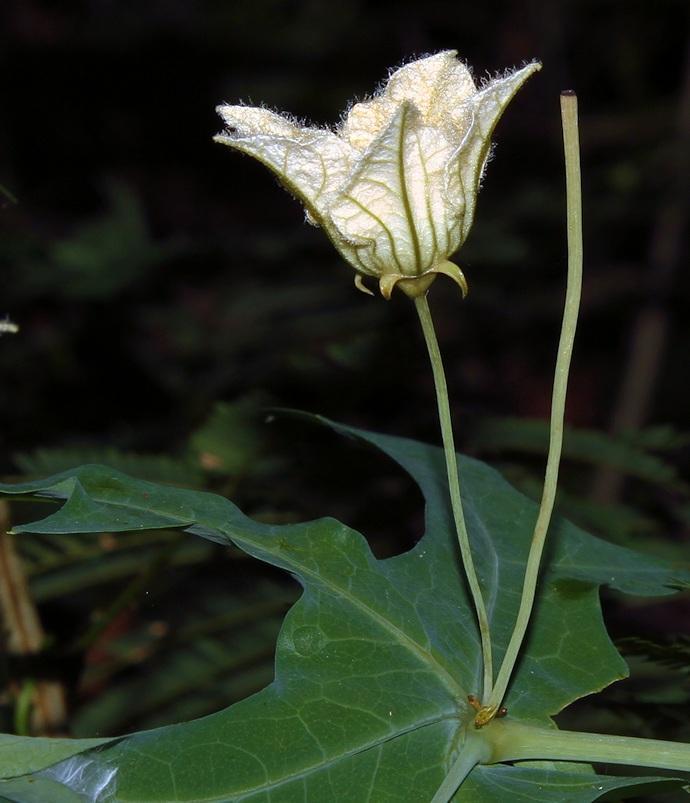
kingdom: Plantae
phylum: Tracheophyta
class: Magnoliopsida
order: Cucurbitales
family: Cucurbitaceae
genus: Coccinia
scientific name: Coccinia sessilifolia
